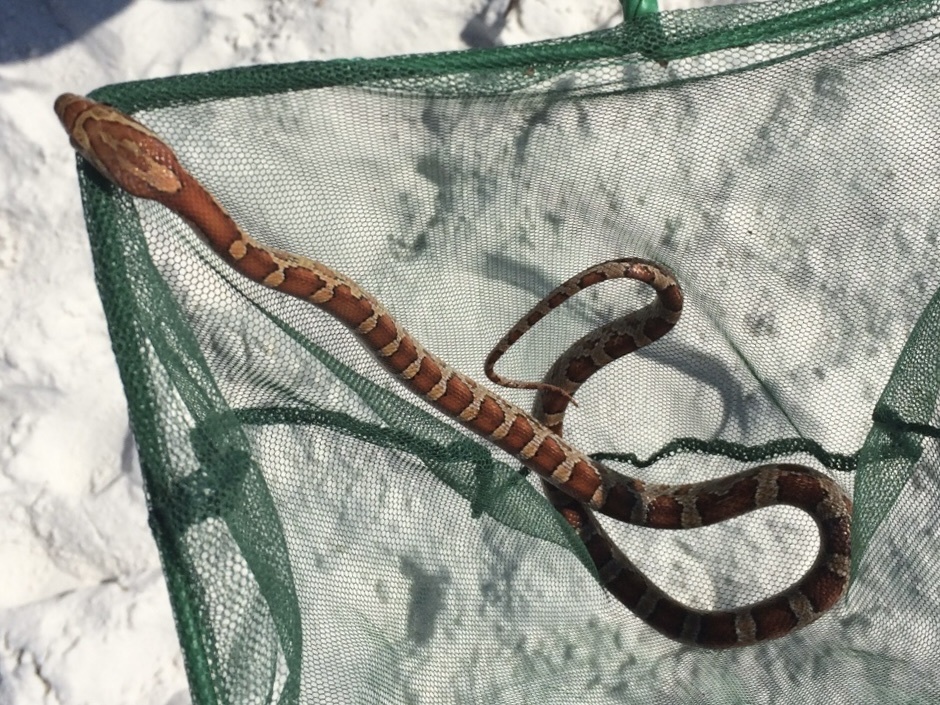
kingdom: Animalia
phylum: Chordata
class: Squamata
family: Colubridae
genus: Pantherophis
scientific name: Pantherophis guttatus
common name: Red cornsnake
